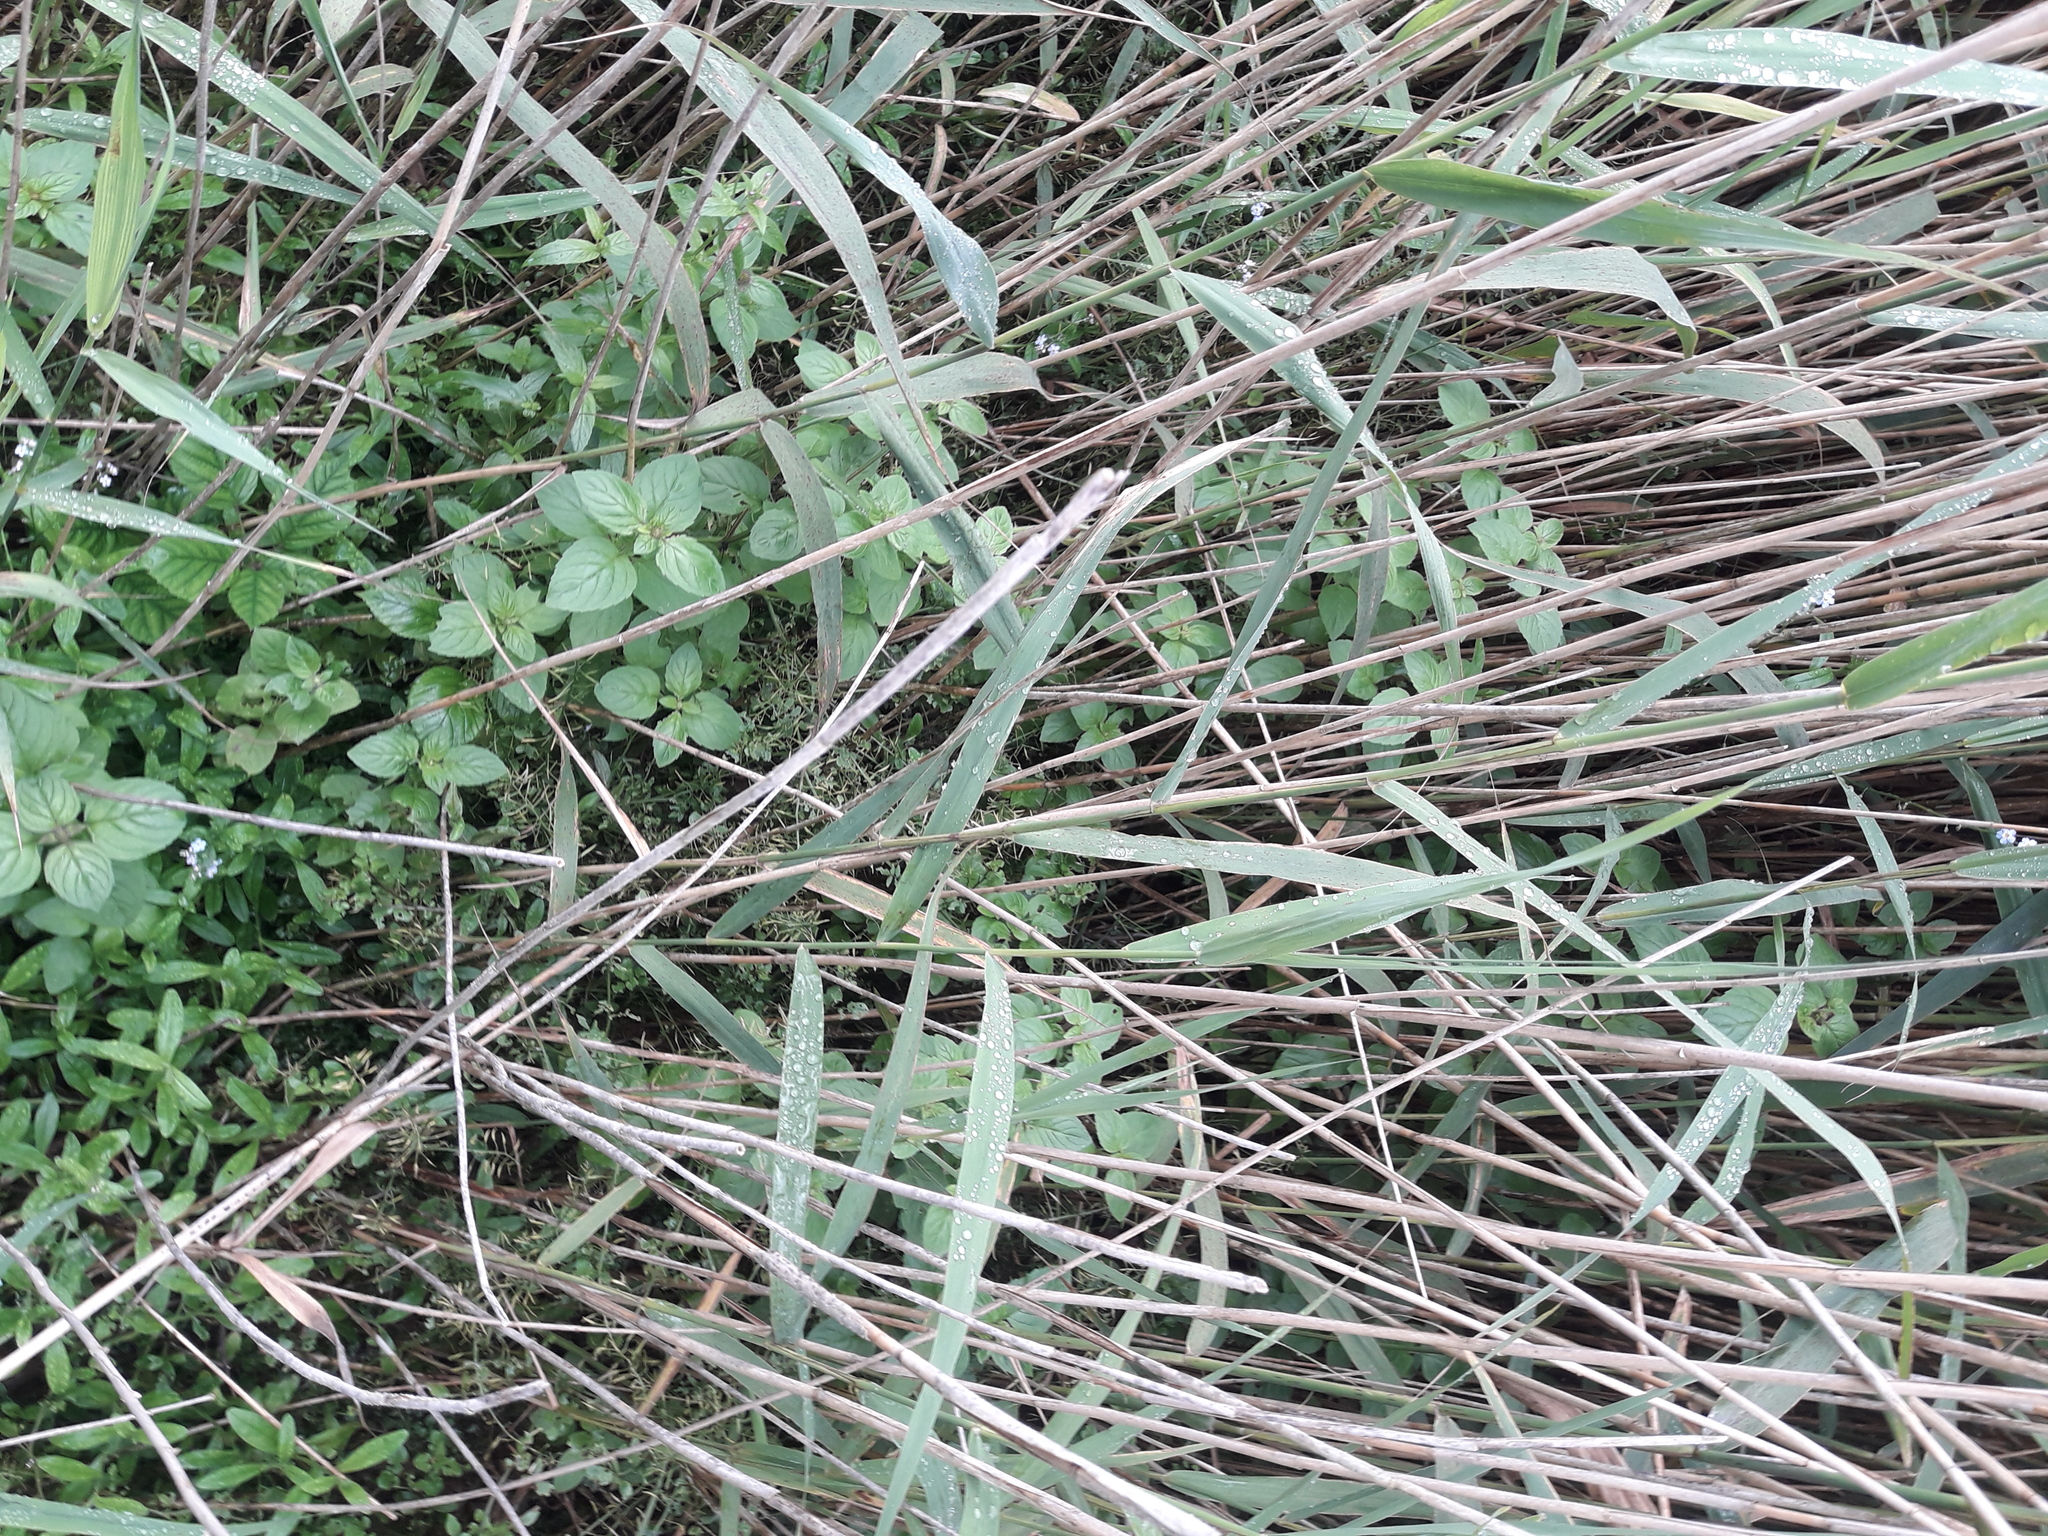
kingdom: Plantae
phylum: Tracheophyta
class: Magnoliopsida
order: Lamiales
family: Lamiaceae
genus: Mentha
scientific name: Mentha aquatica
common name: Water mint
